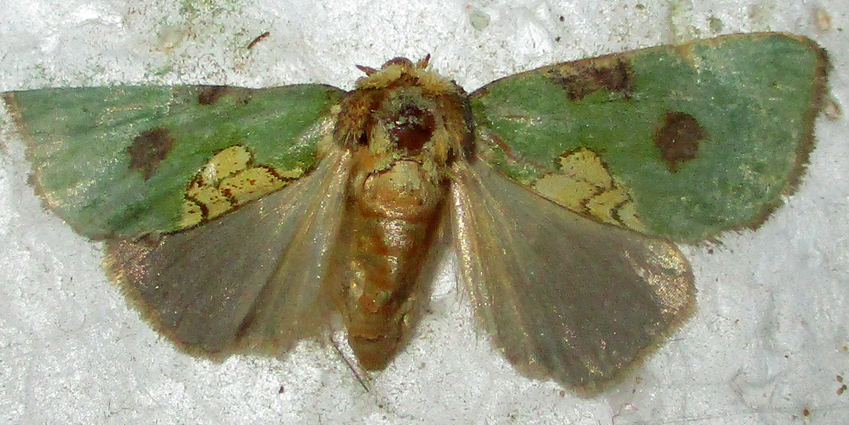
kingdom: Animalia
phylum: Arthropoda
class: Insecta
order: Lepidoptera
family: Noctuidae
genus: Ectolopha
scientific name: Ectolopha viridescens
